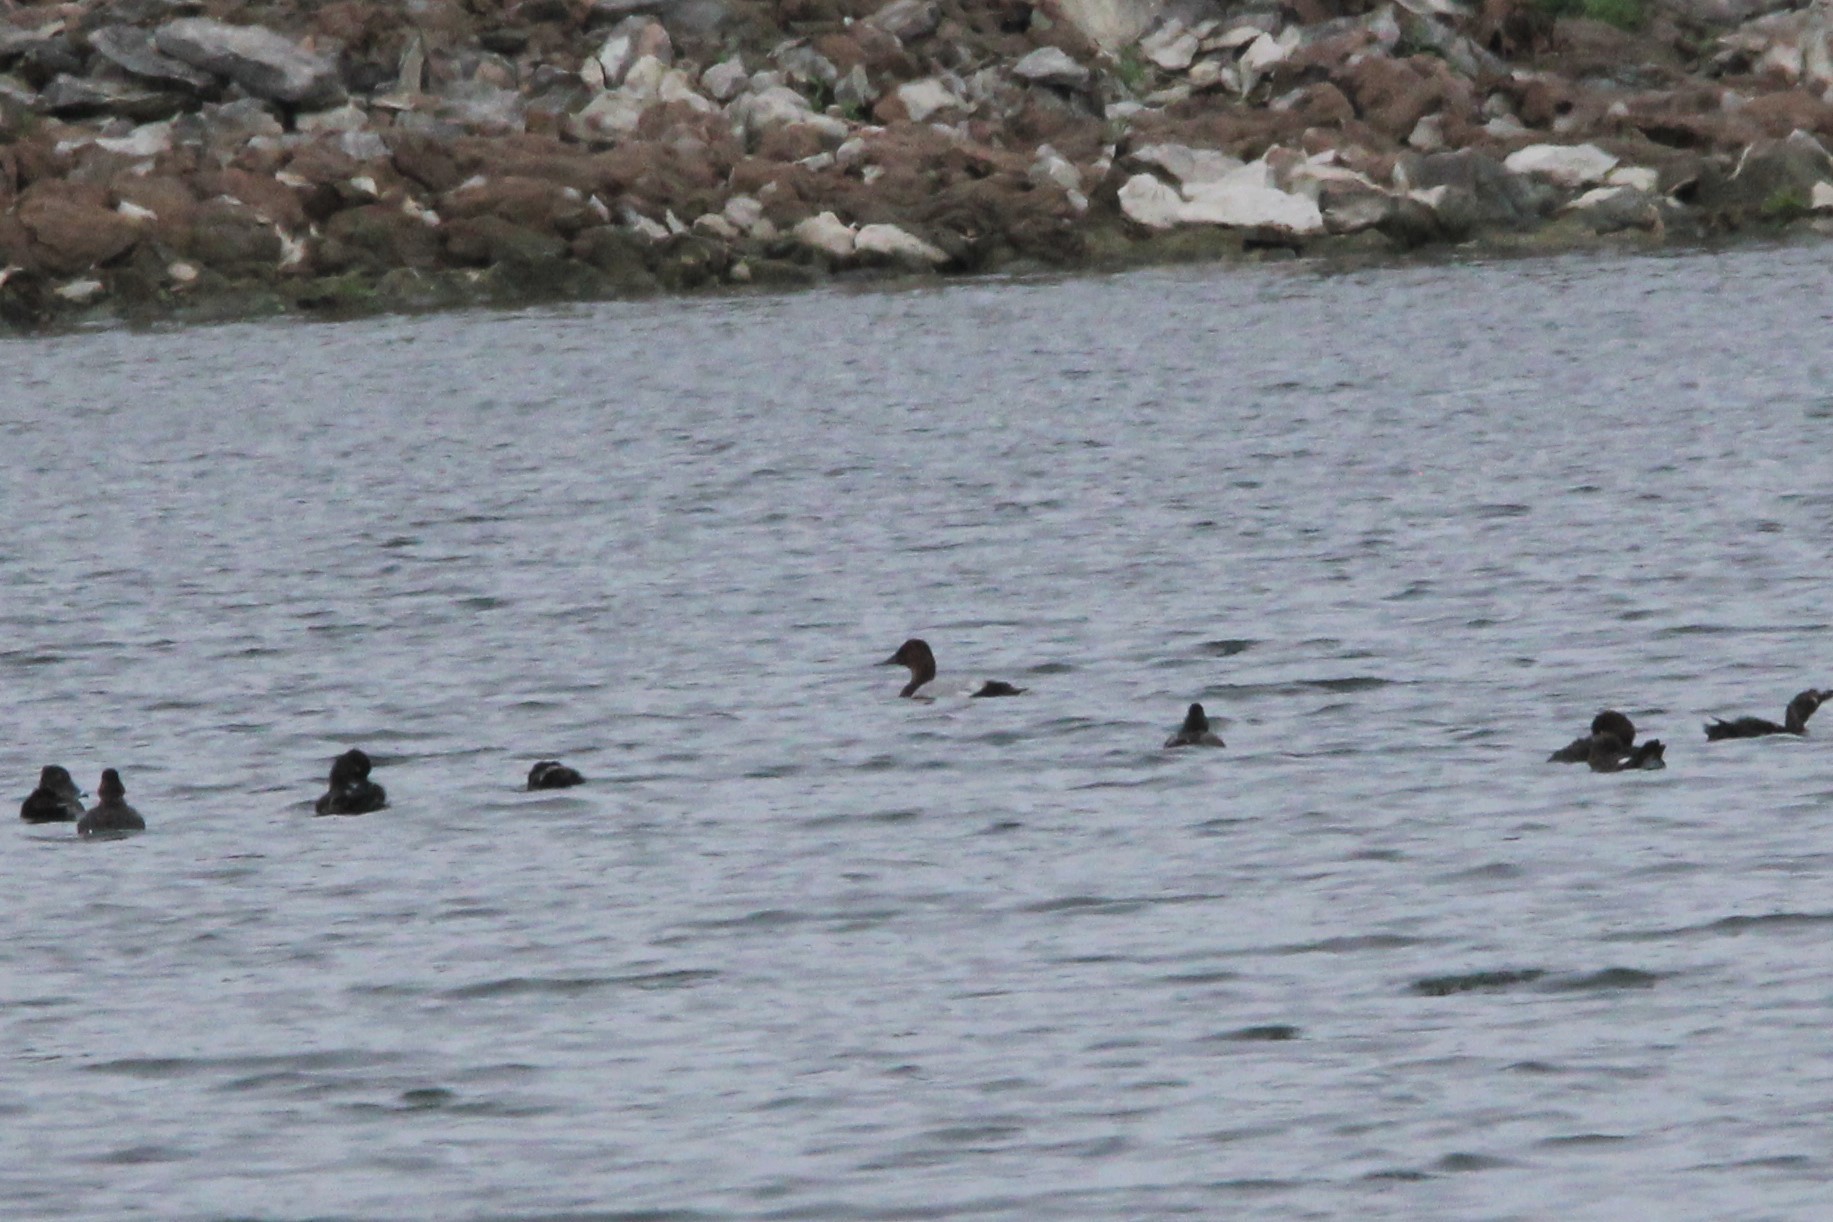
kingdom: Animalia
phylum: Chordata
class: Aves
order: Anseriformes
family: Anatidae
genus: Aythya
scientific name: Aythya valisineria
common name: Canvasback
